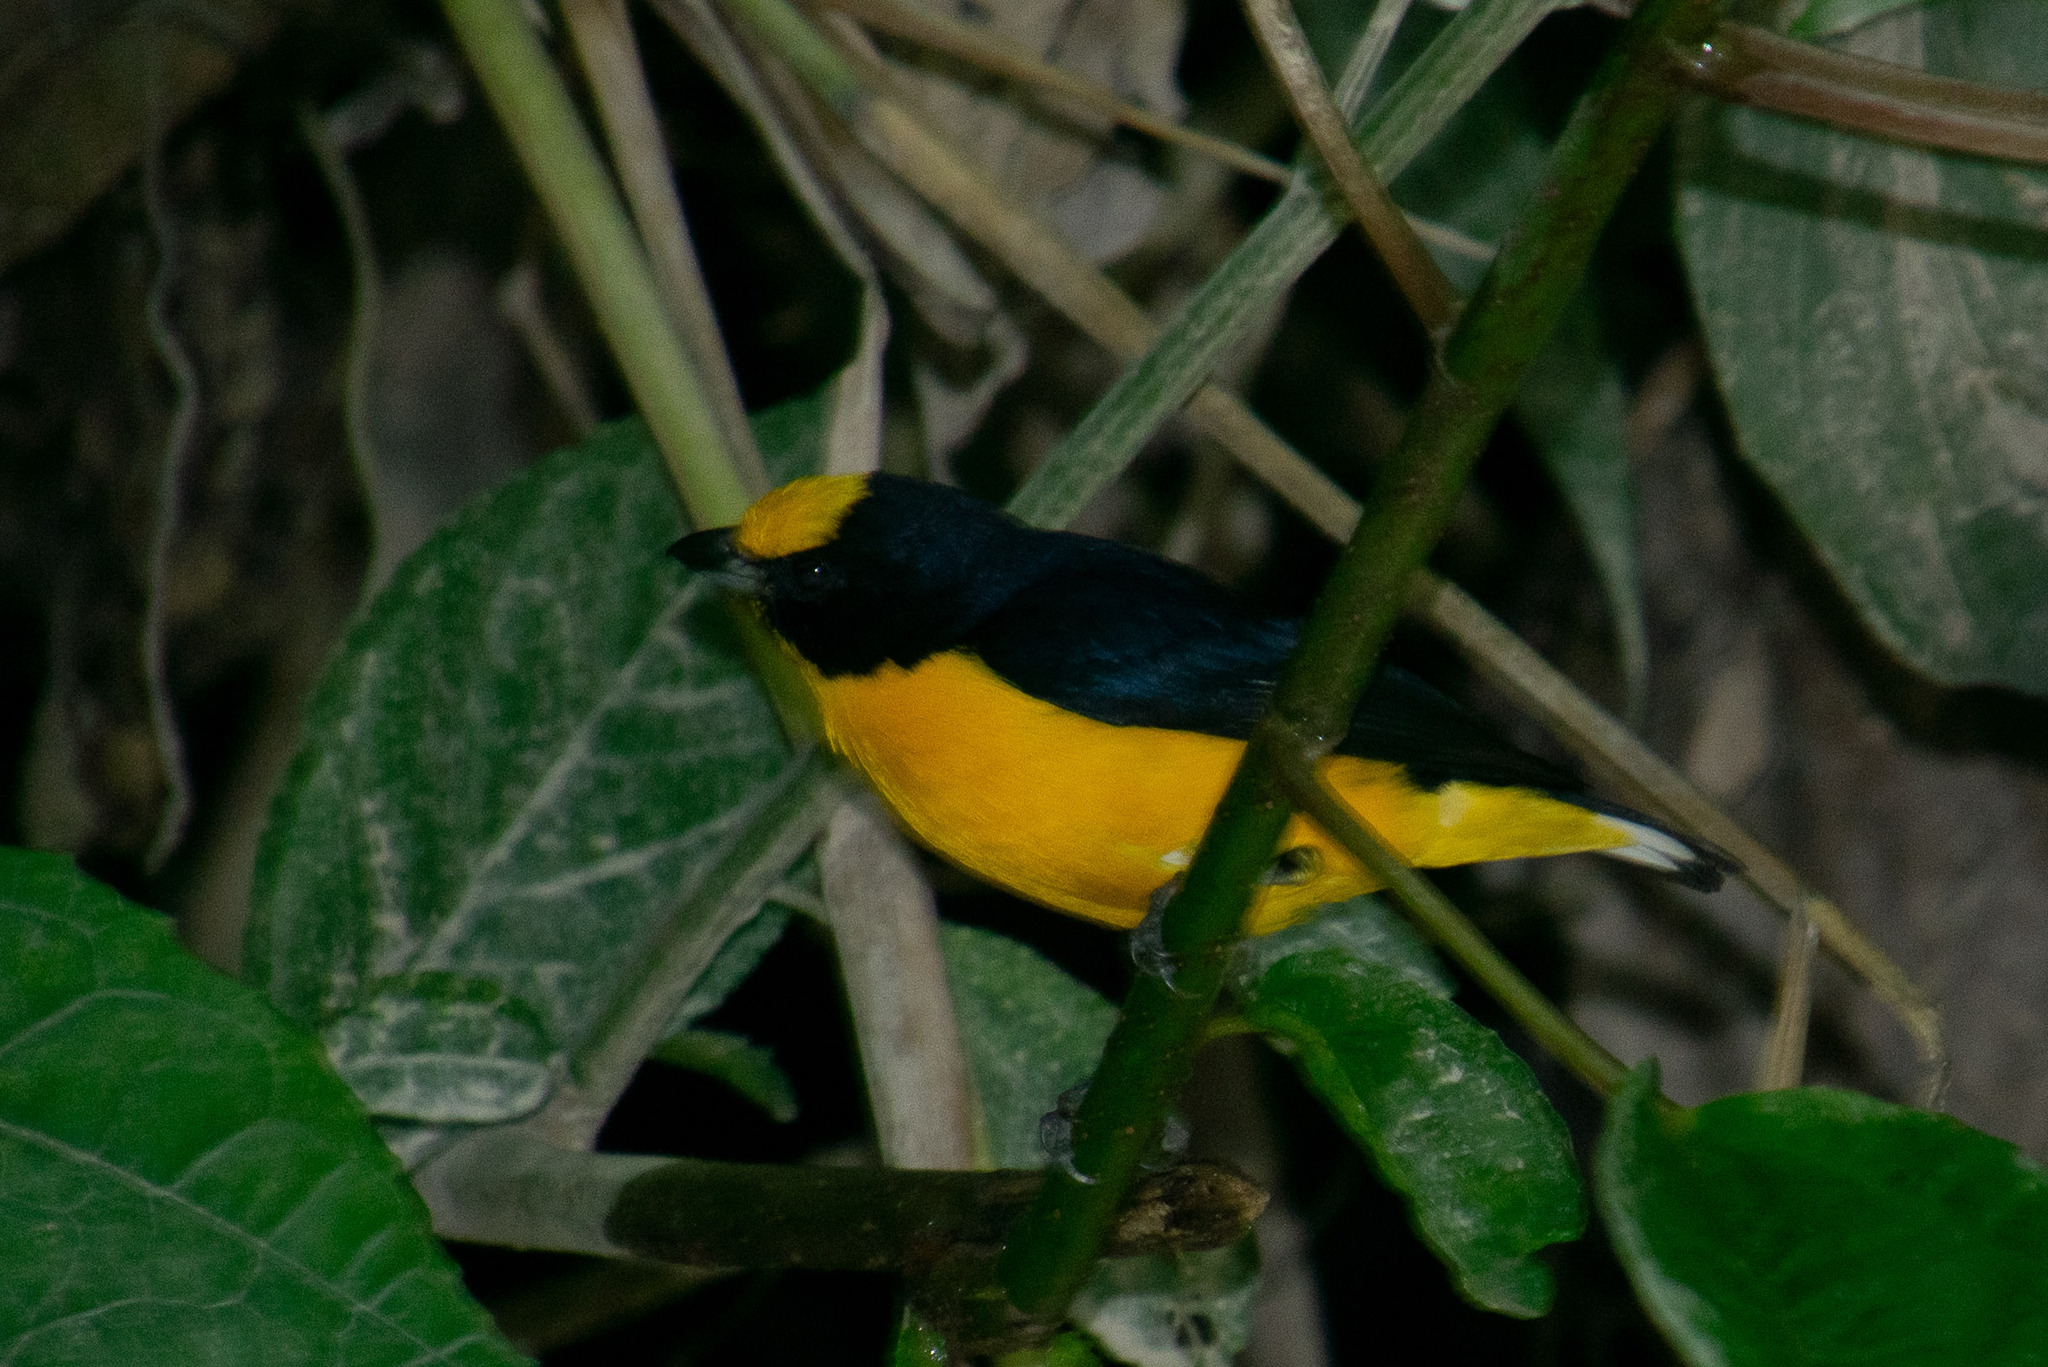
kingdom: Animalia
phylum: Chordata
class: Aves
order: Passeriformes
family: Fringillidae
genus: Euphonia
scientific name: Euphonia xanthogaster
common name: Orange-bellied euphonia
